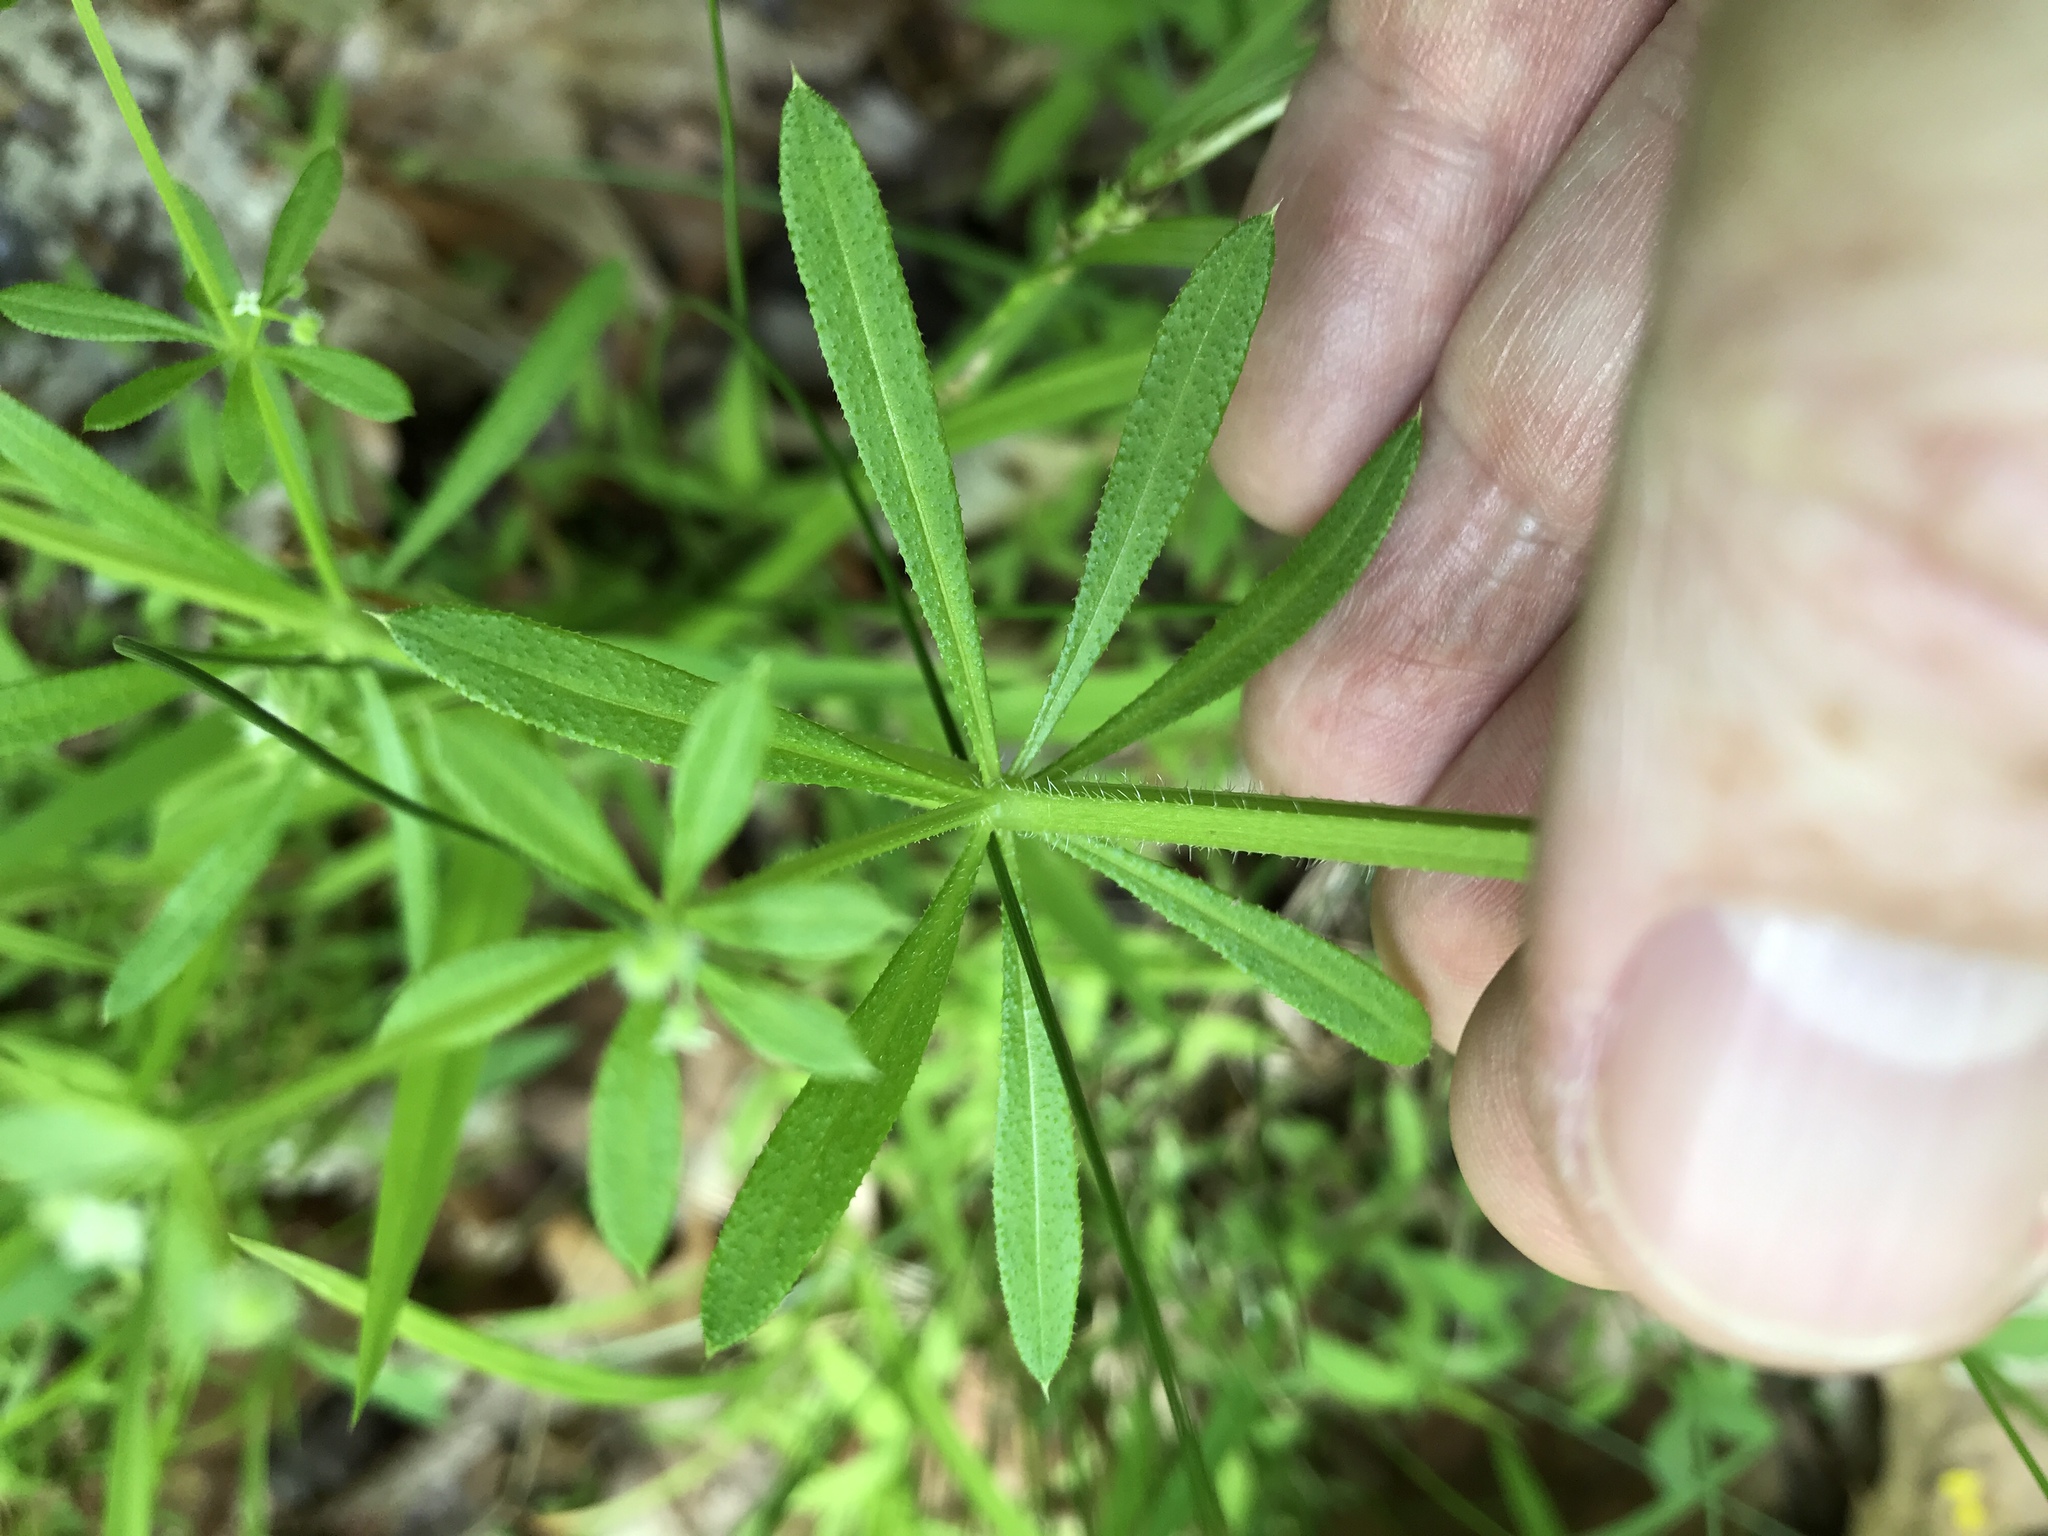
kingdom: Plantae
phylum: Tracheophyta
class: Magnoliopsida
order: Gentianales
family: Rubiaceae
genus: Galium
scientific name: Galium aparine
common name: Cleavers
